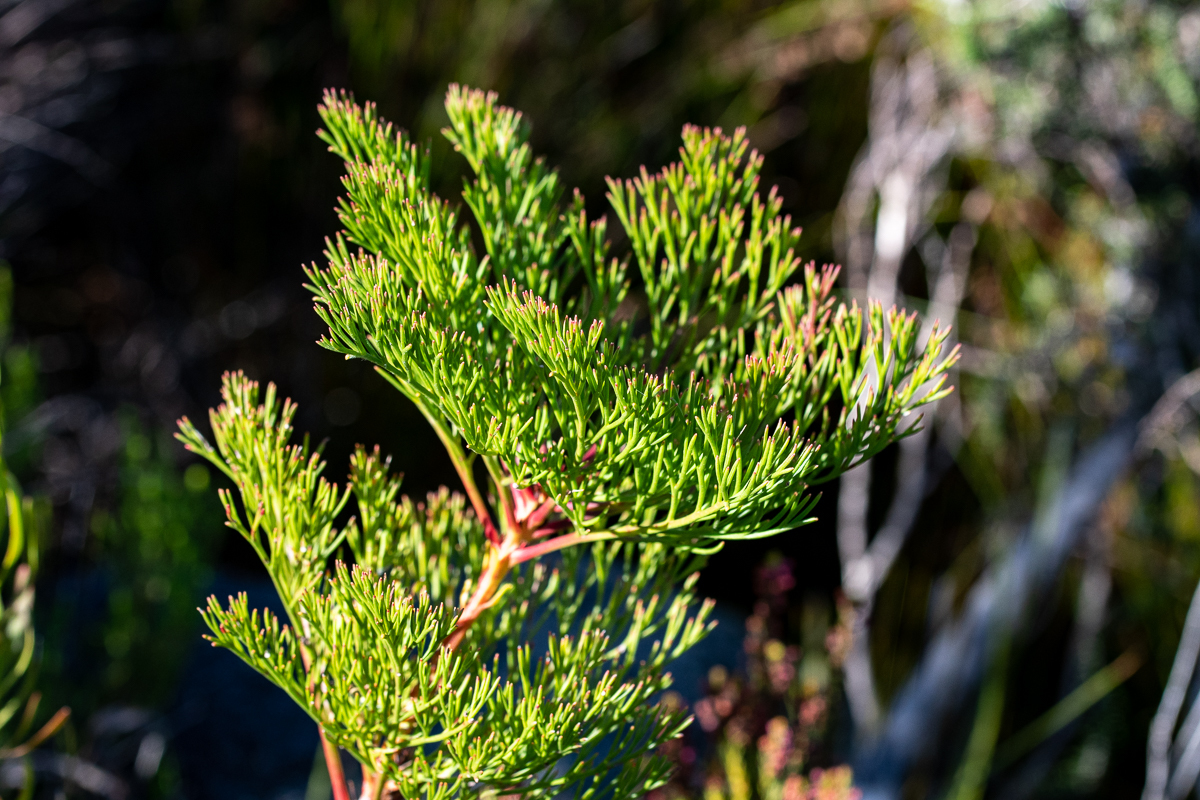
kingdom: Plantae
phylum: Tracheophyta
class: Magnoliopsida
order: Proteales
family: Proteaceae
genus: Serruria
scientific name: Serruria elongata
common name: Long-stalk spiderhead
